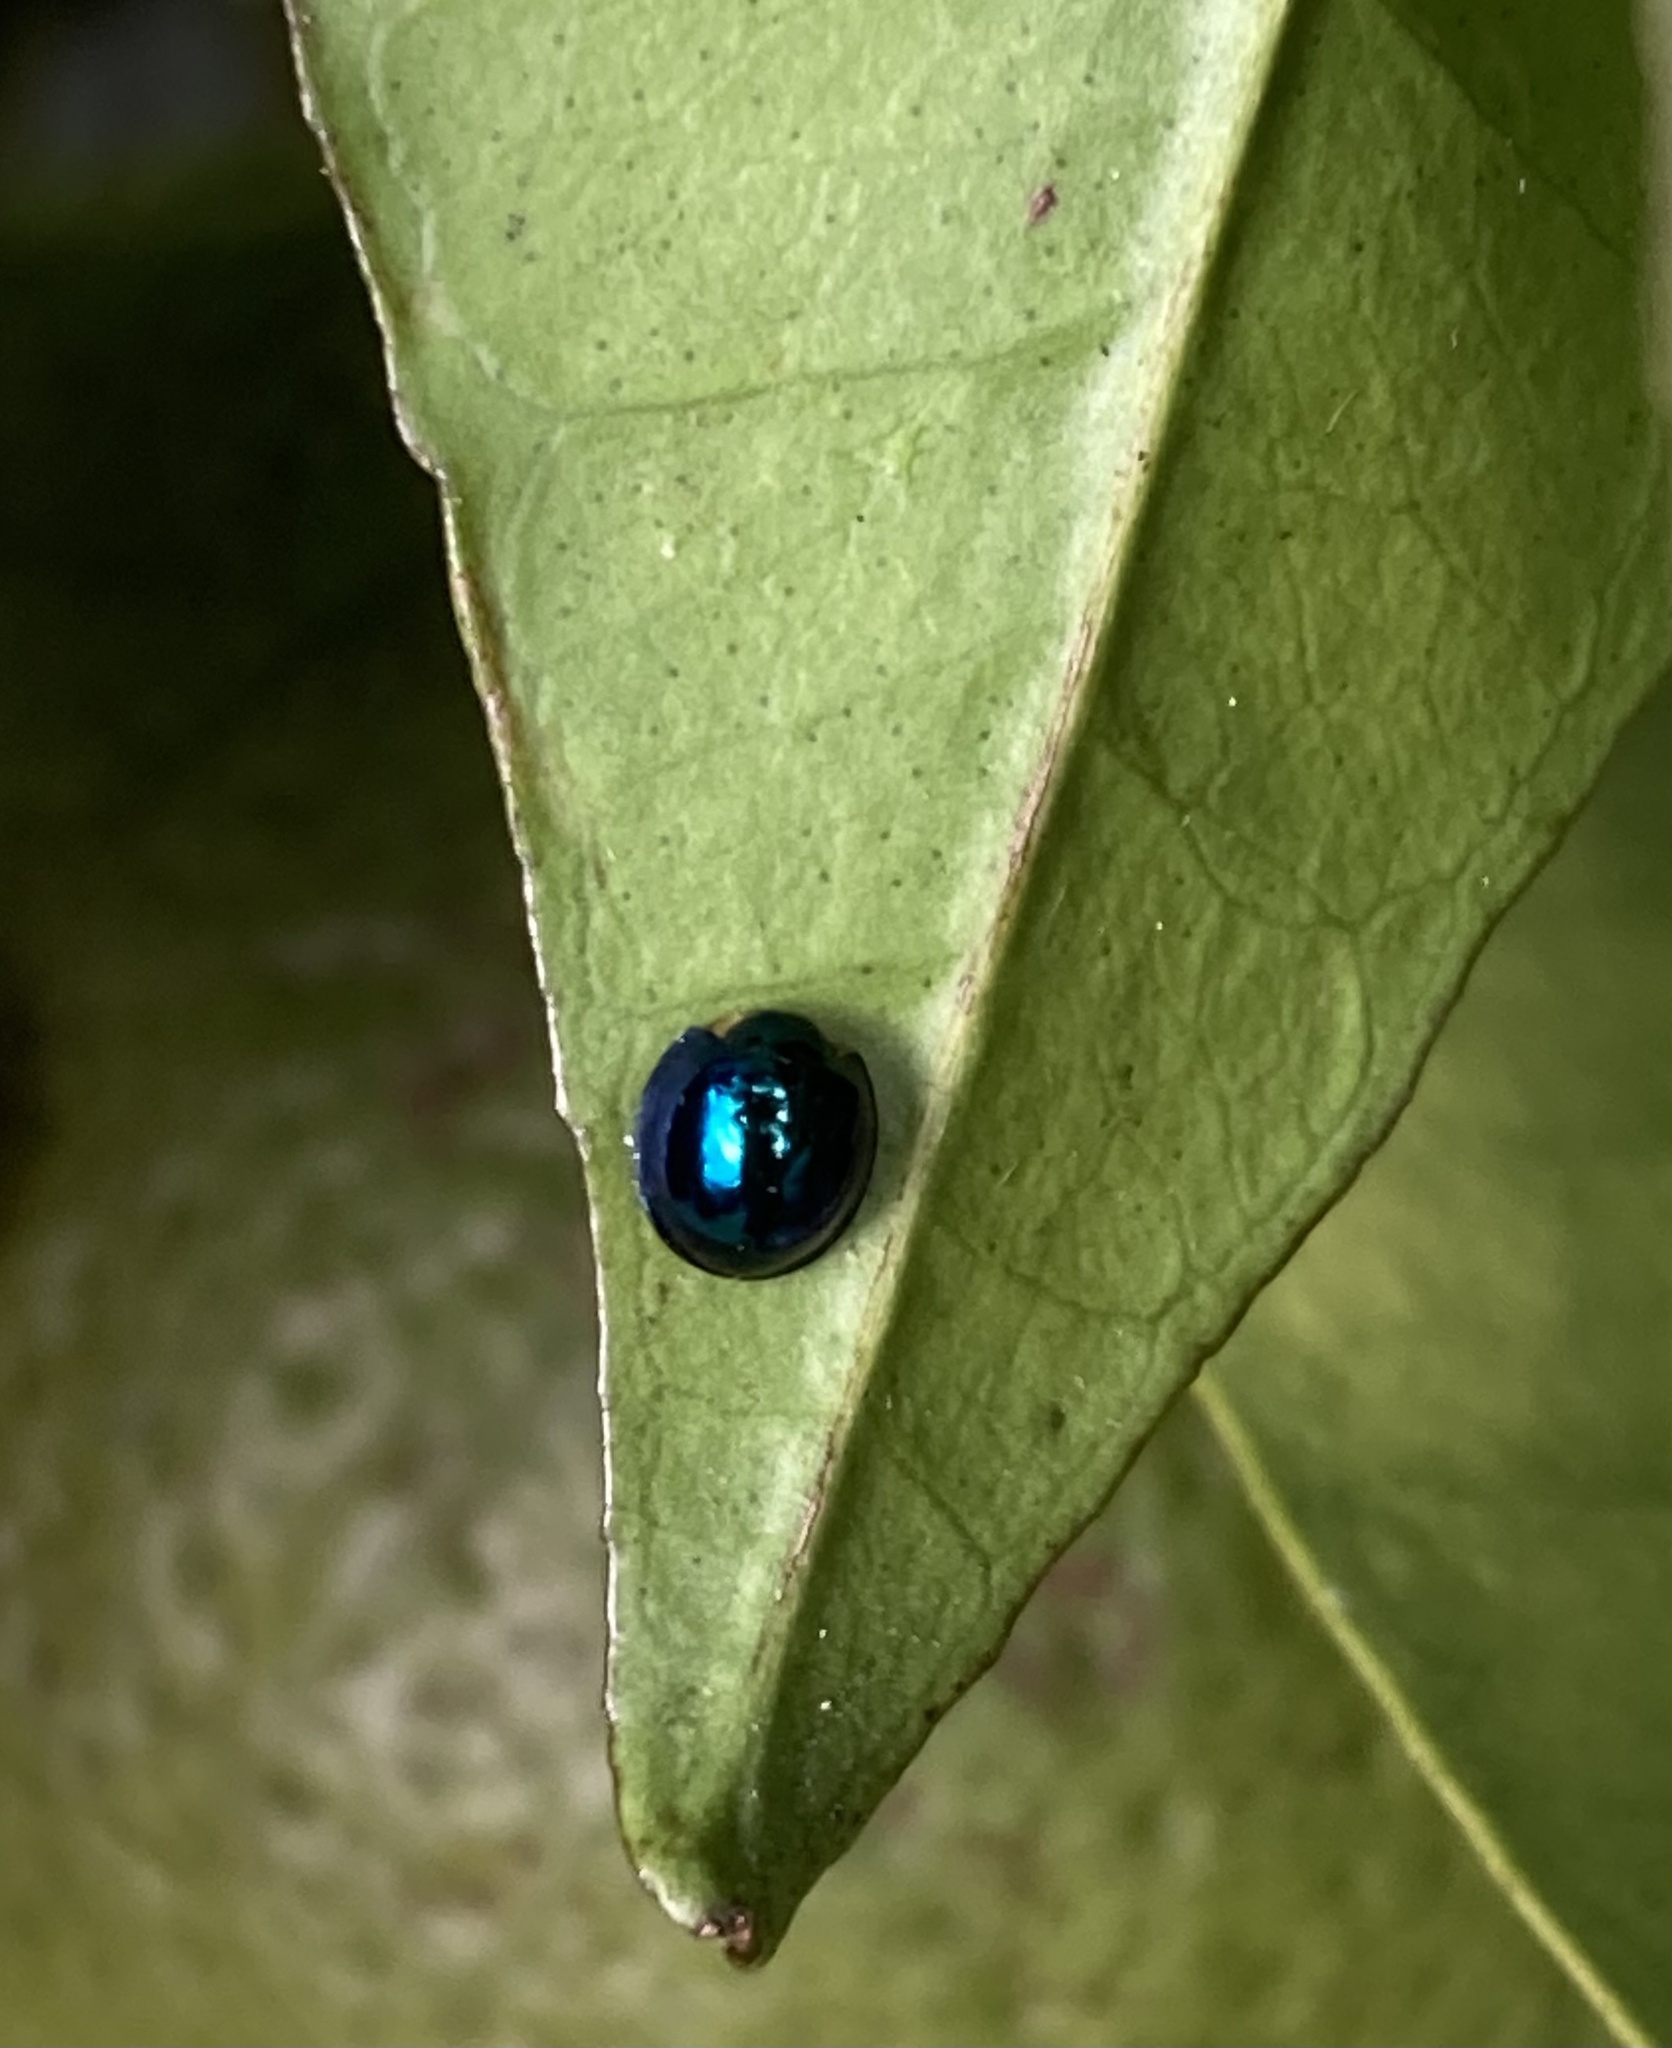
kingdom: Animalia
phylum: Arthropoda
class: Insecta
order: Coleoptera
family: Coccinellidae
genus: Halmus
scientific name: Halmus chalybeus
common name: Steel blue ladybird beetle
